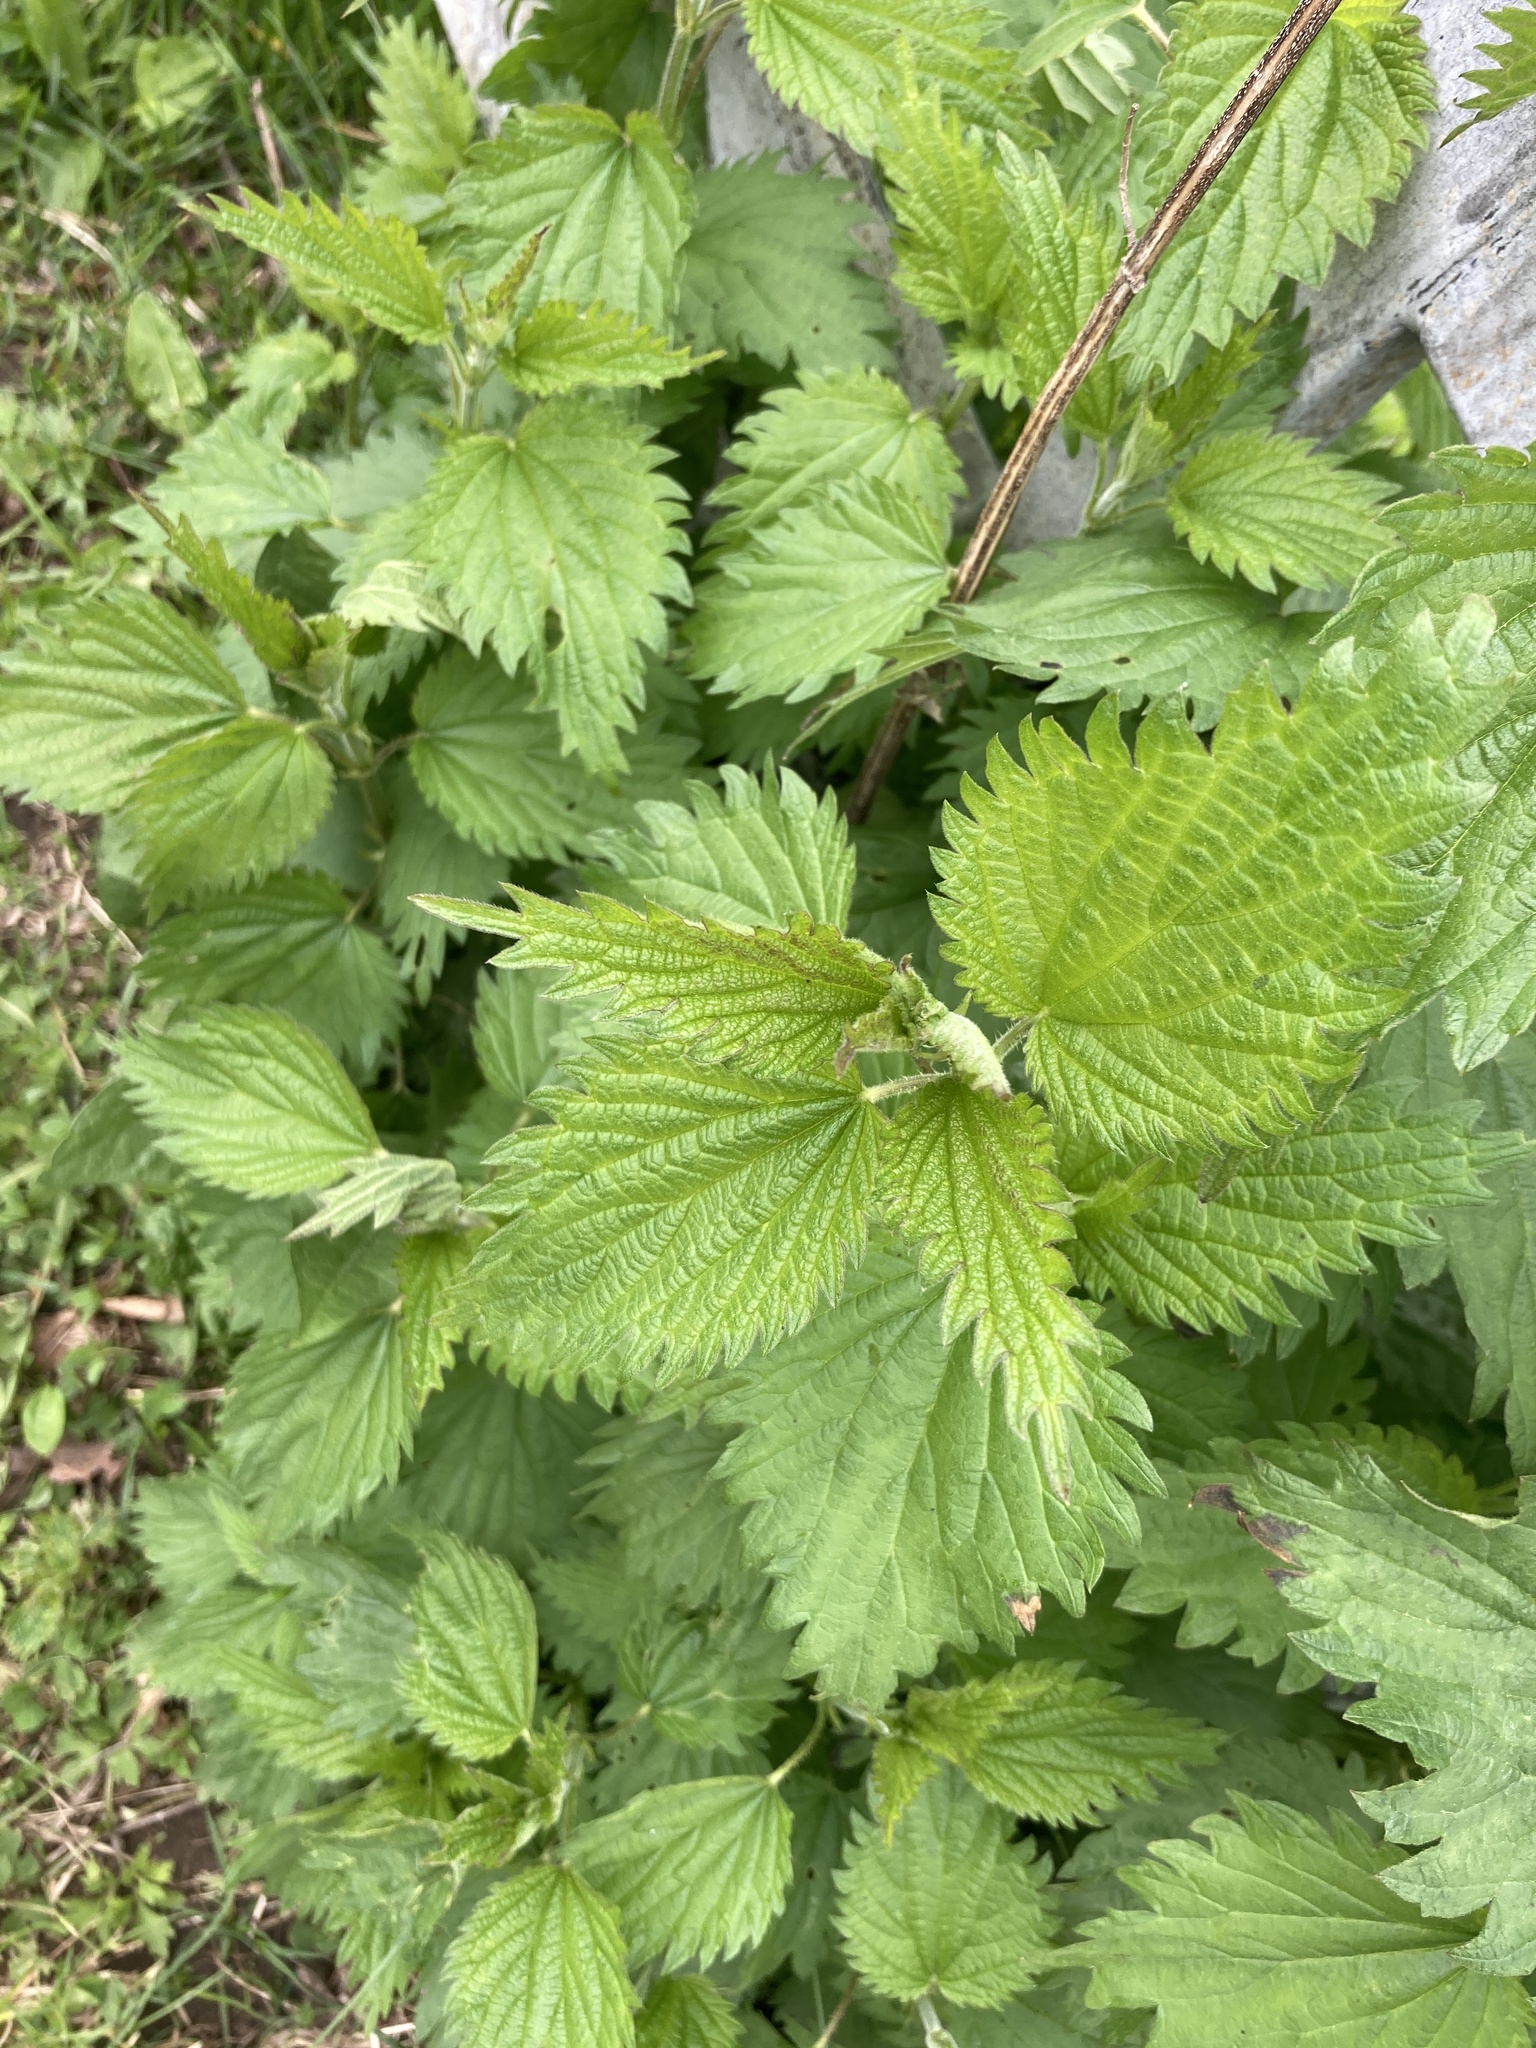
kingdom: Plantae
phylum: Tracheophyta
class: Magnoliopsida
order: Rosales
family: Urticaceae
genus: Urtica
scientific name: Urtica dioica
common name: Common nettle
